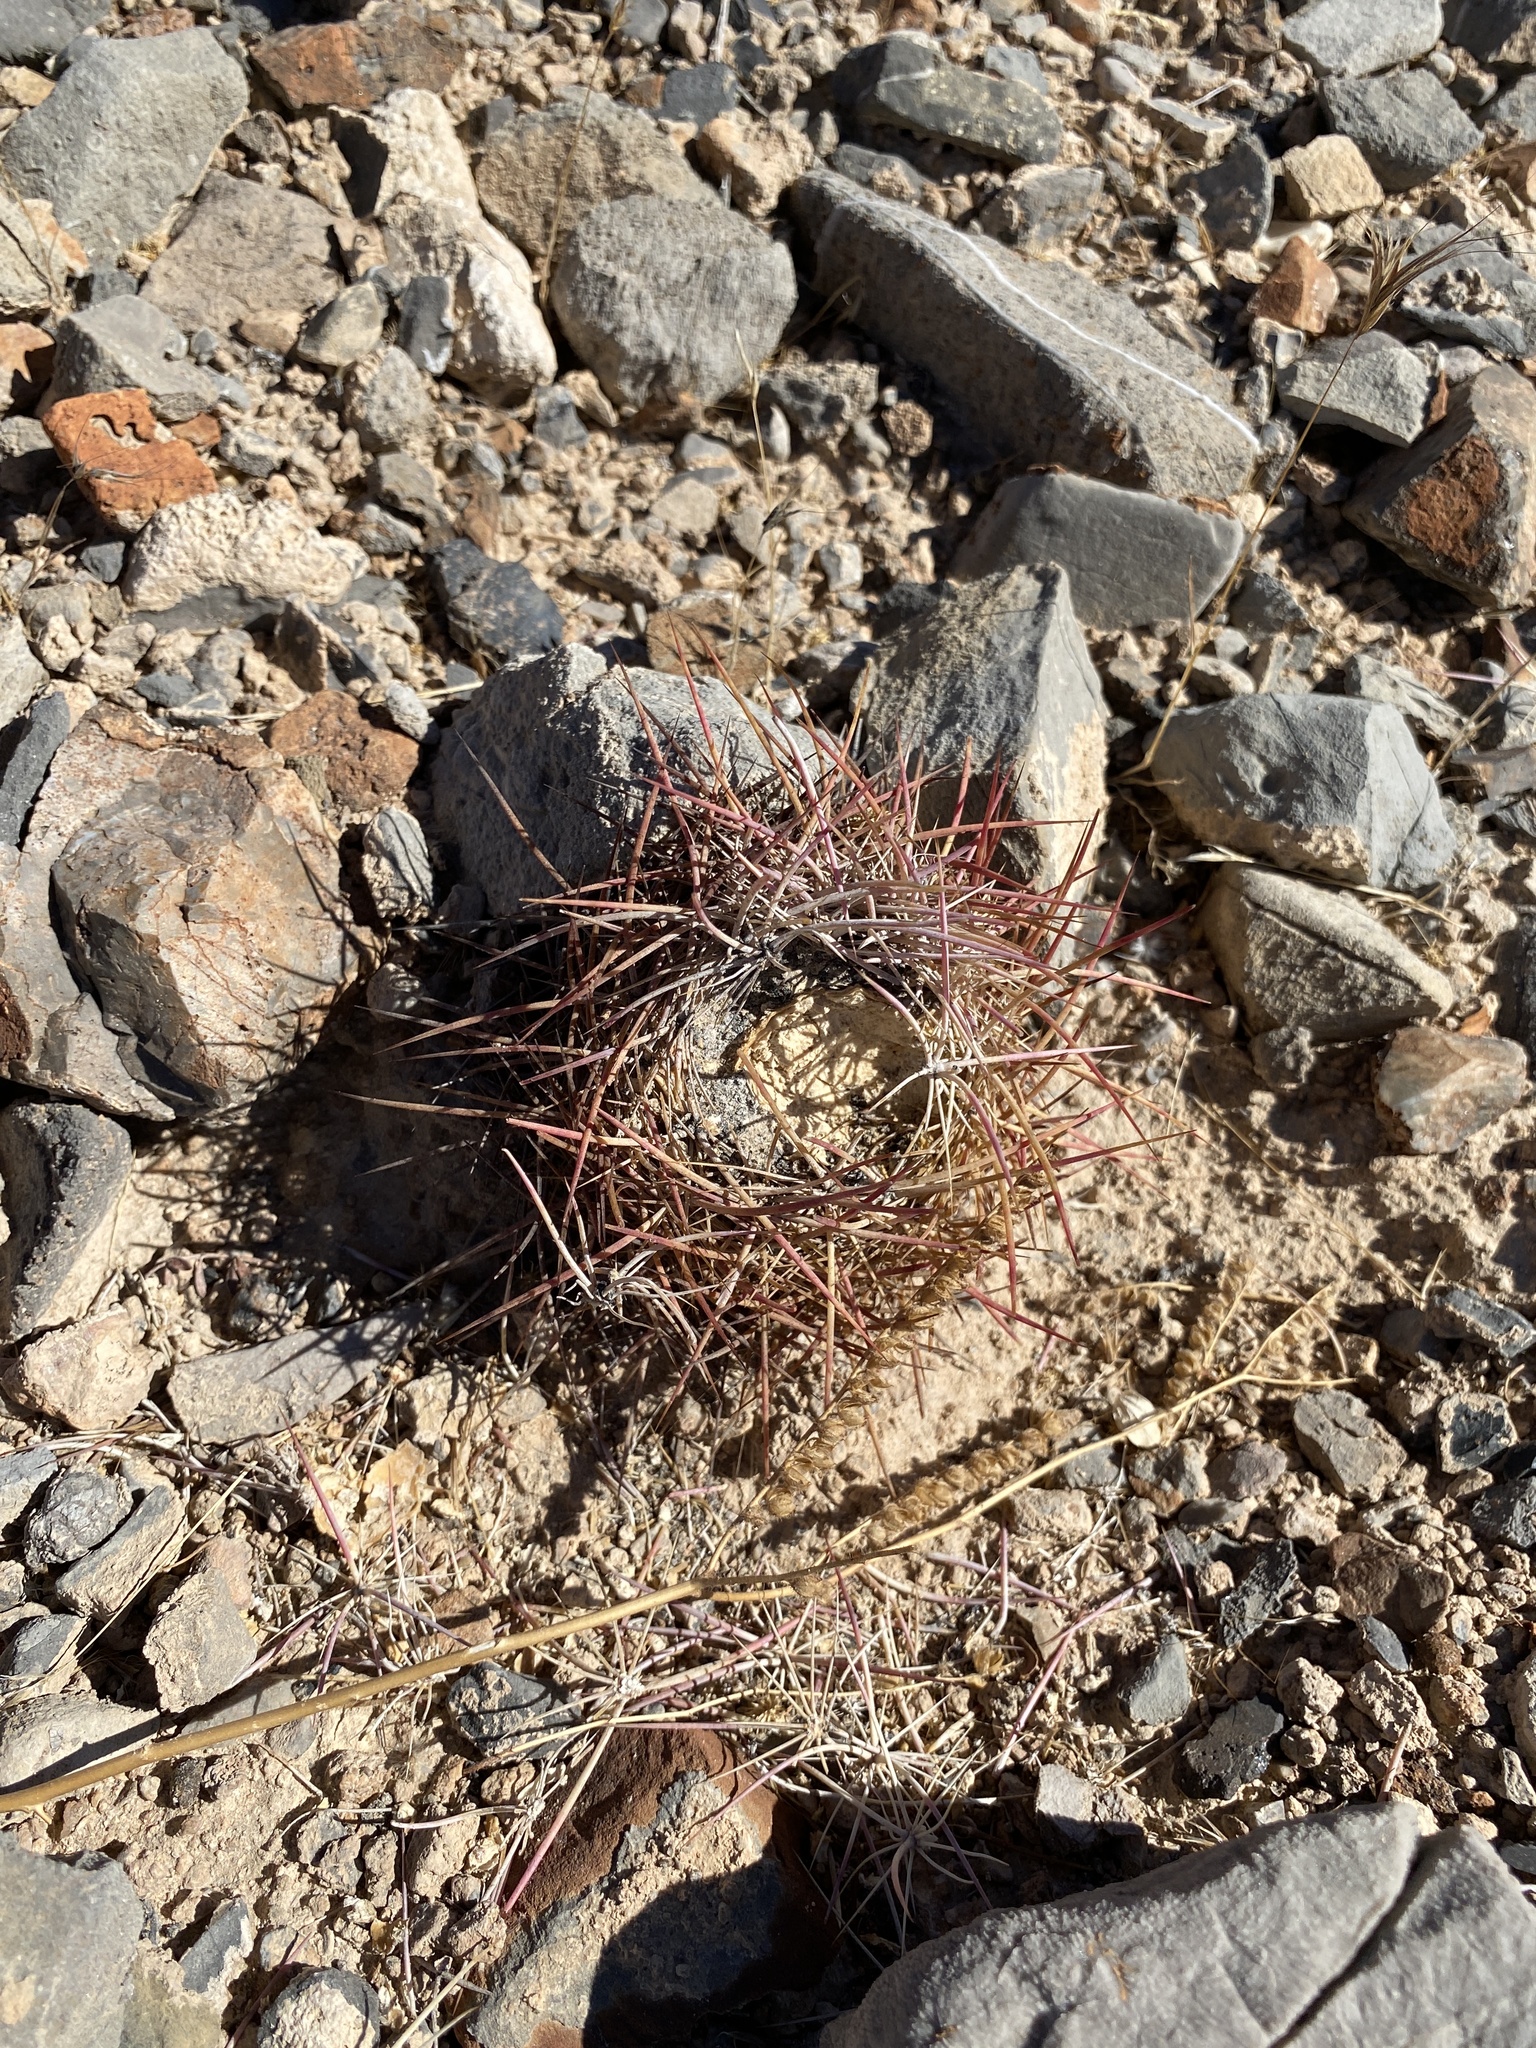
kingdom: Plantae
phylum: Tracheophyta
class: Magnoliopsida
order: Caryophyllales
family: Cactaceae
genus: Sclerocactus
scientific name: Sclerocactus johnsonii
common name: Eight-spine fishhook cactus
